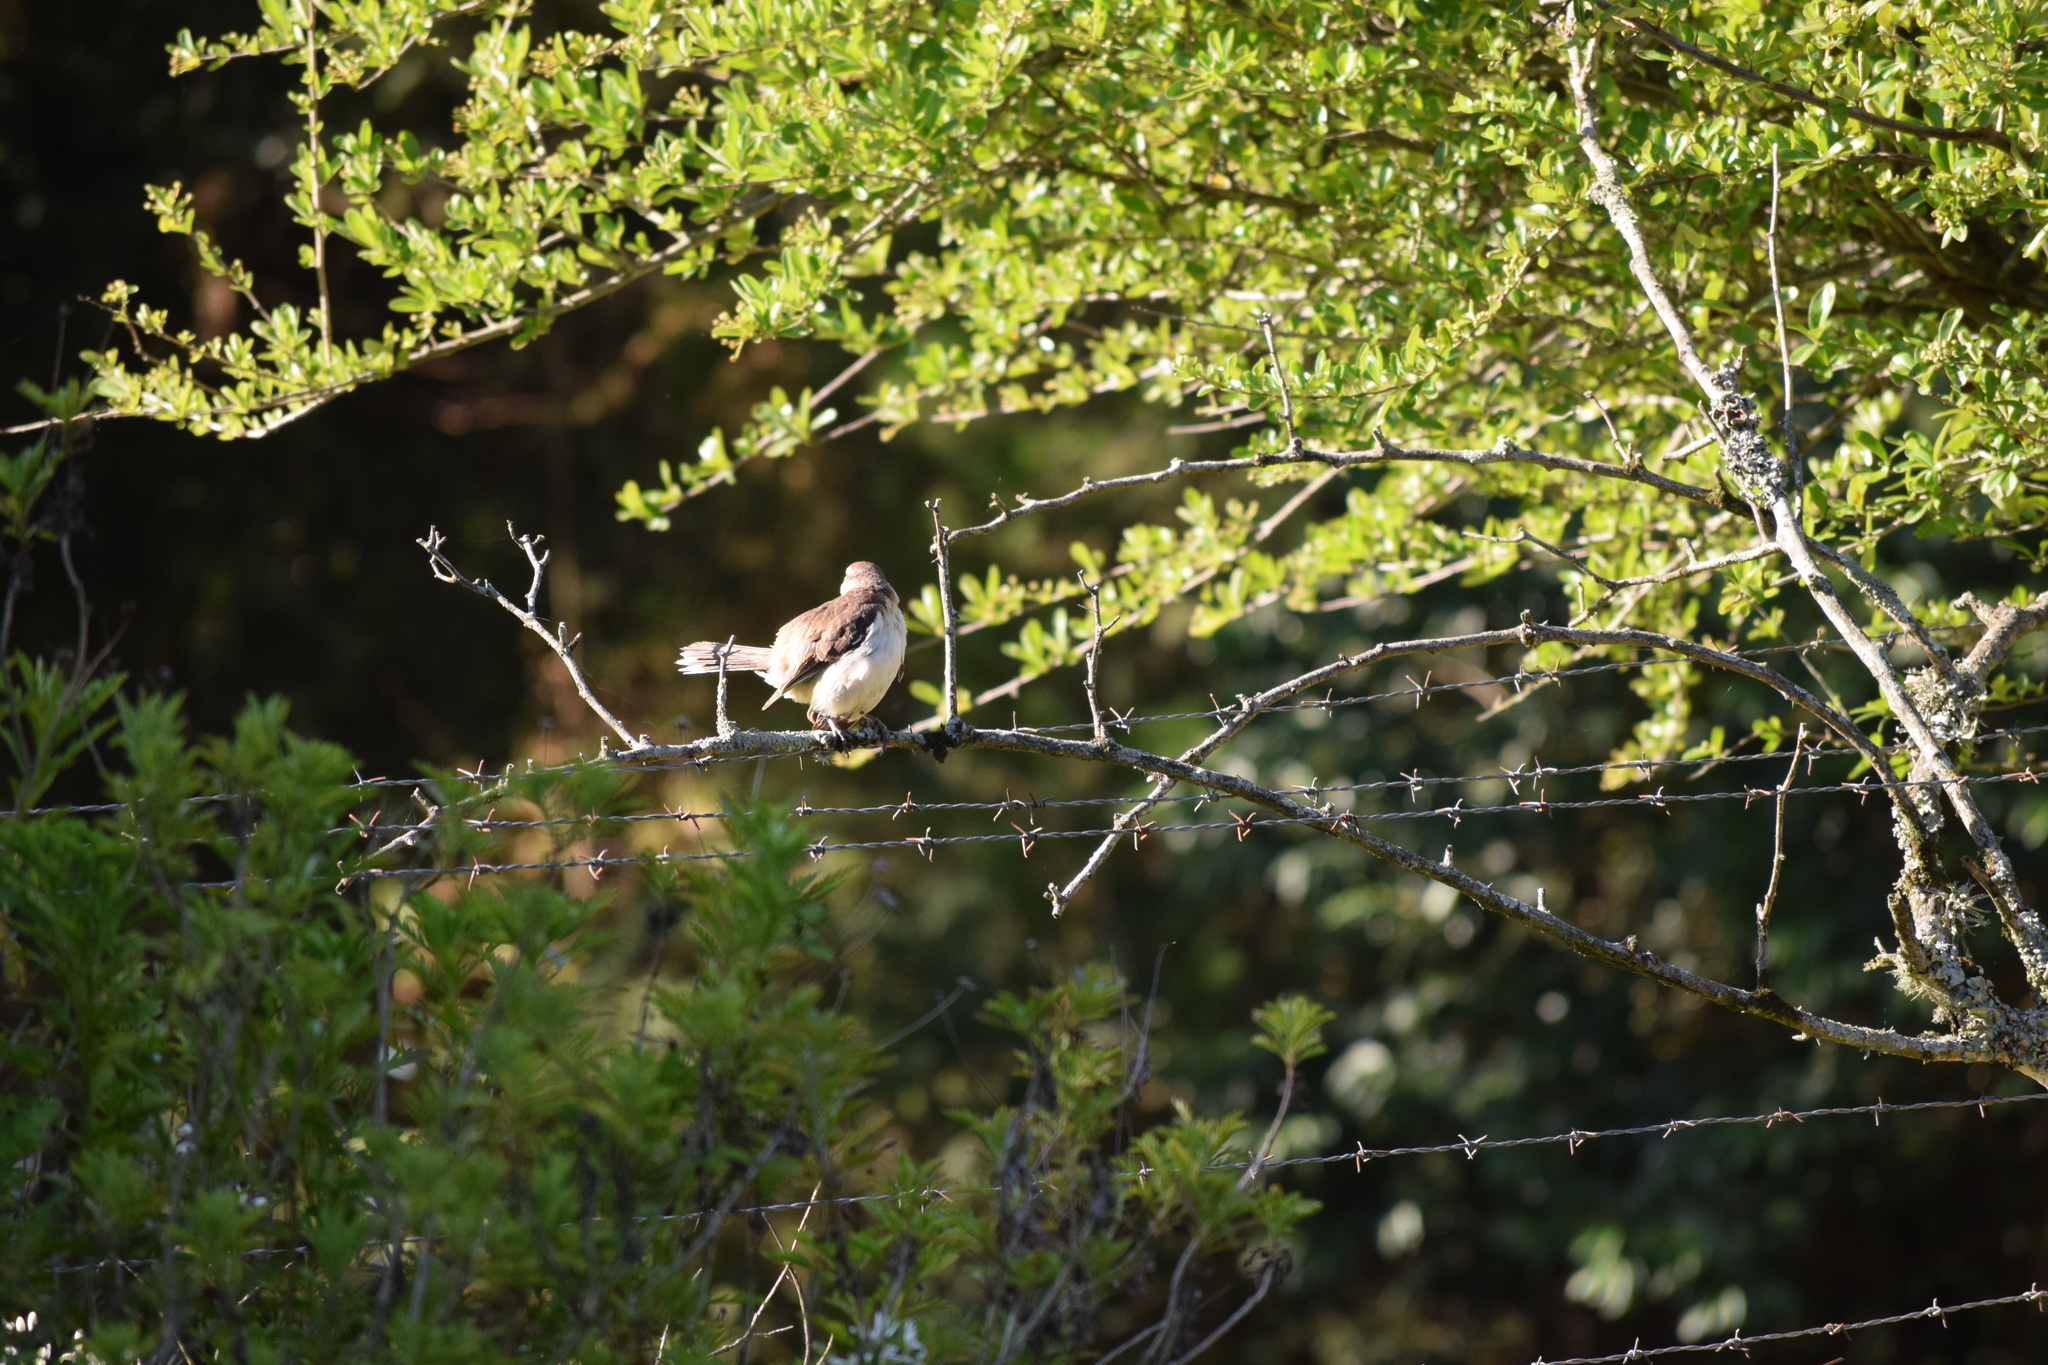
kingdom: Animalia
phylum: Chordata
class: Aves
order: Passeriformes
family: Mimidae
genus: Mimus
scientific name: Mimus saturninus
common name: Chalk-browed mockingbird
